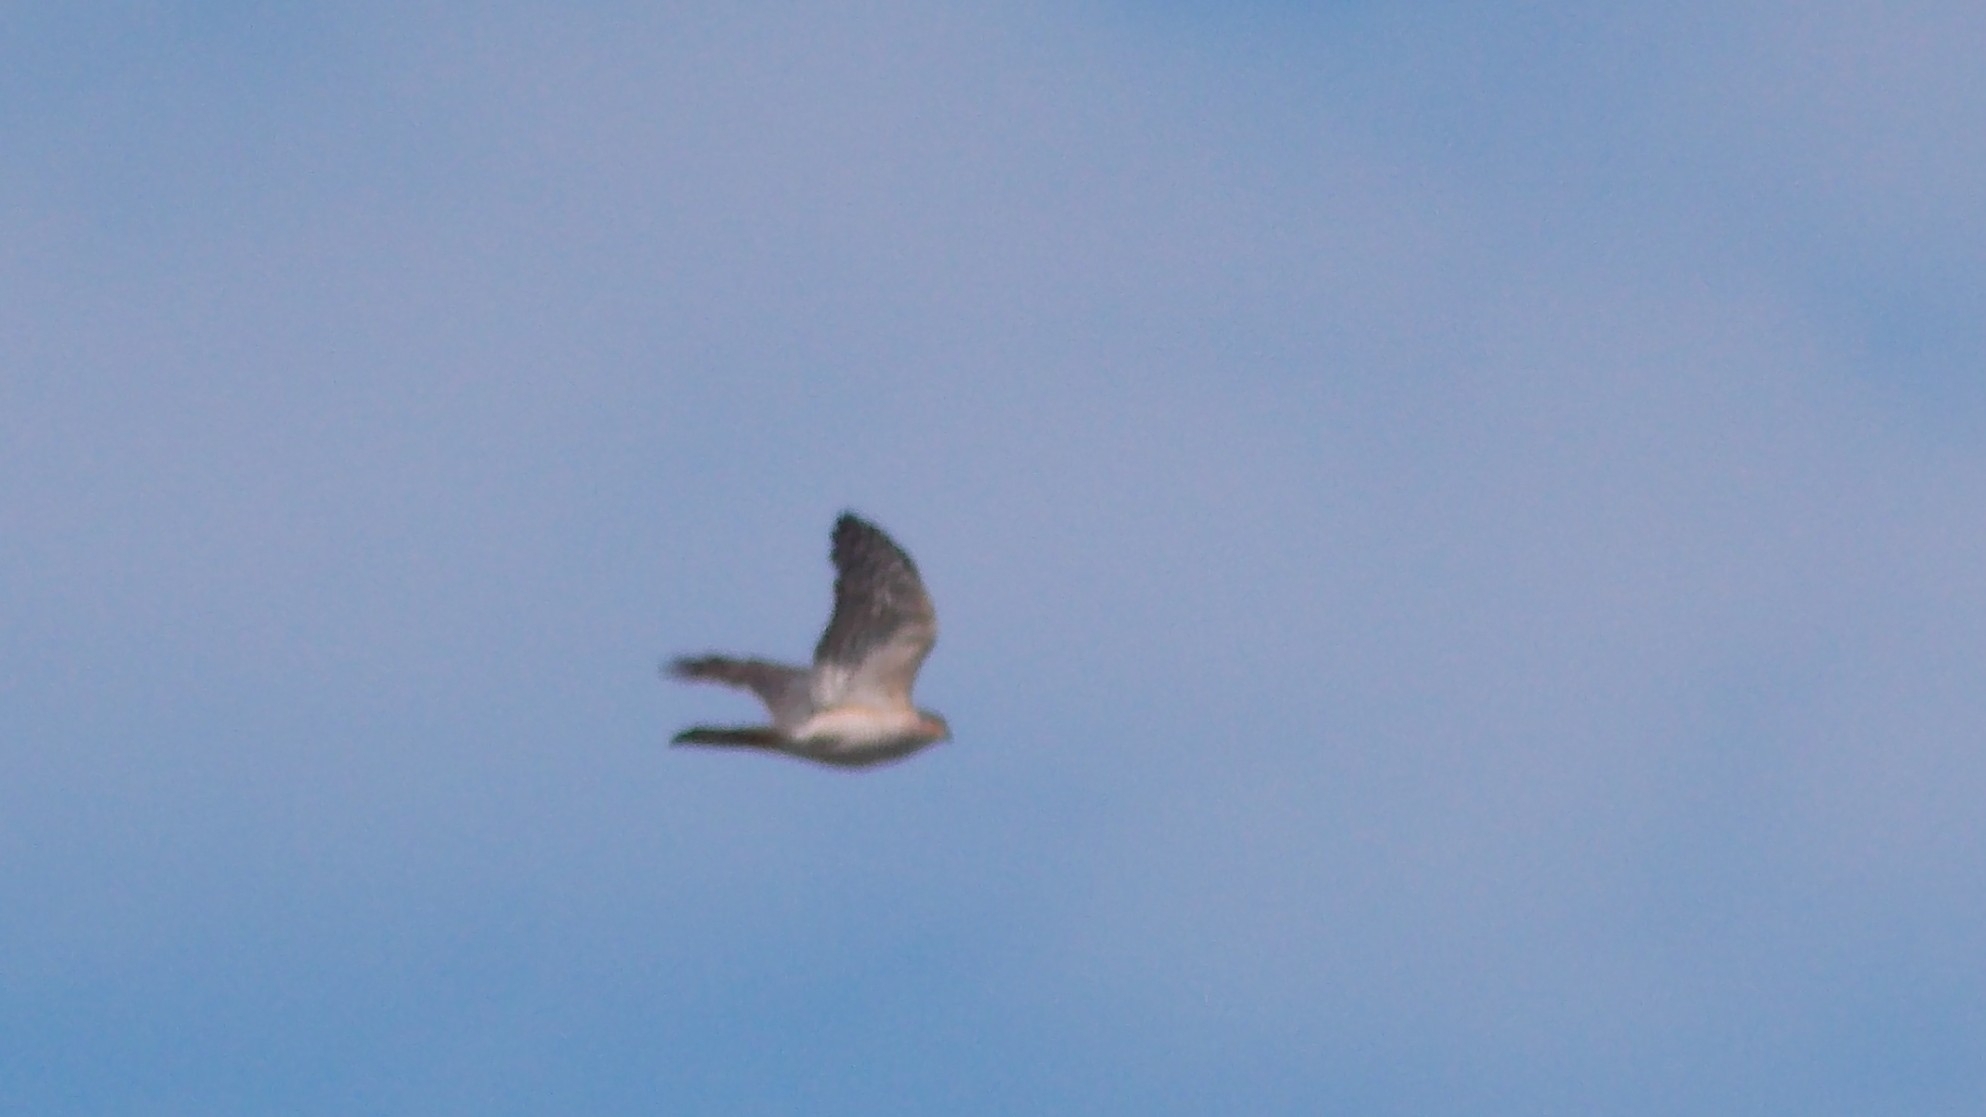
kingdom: Animalia
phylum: Chordata
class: Aves
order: Accipitriformes
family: Accipitridae
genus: Accipiter
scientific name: Accipiter nisus
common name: Eurasian sparrowhawk
